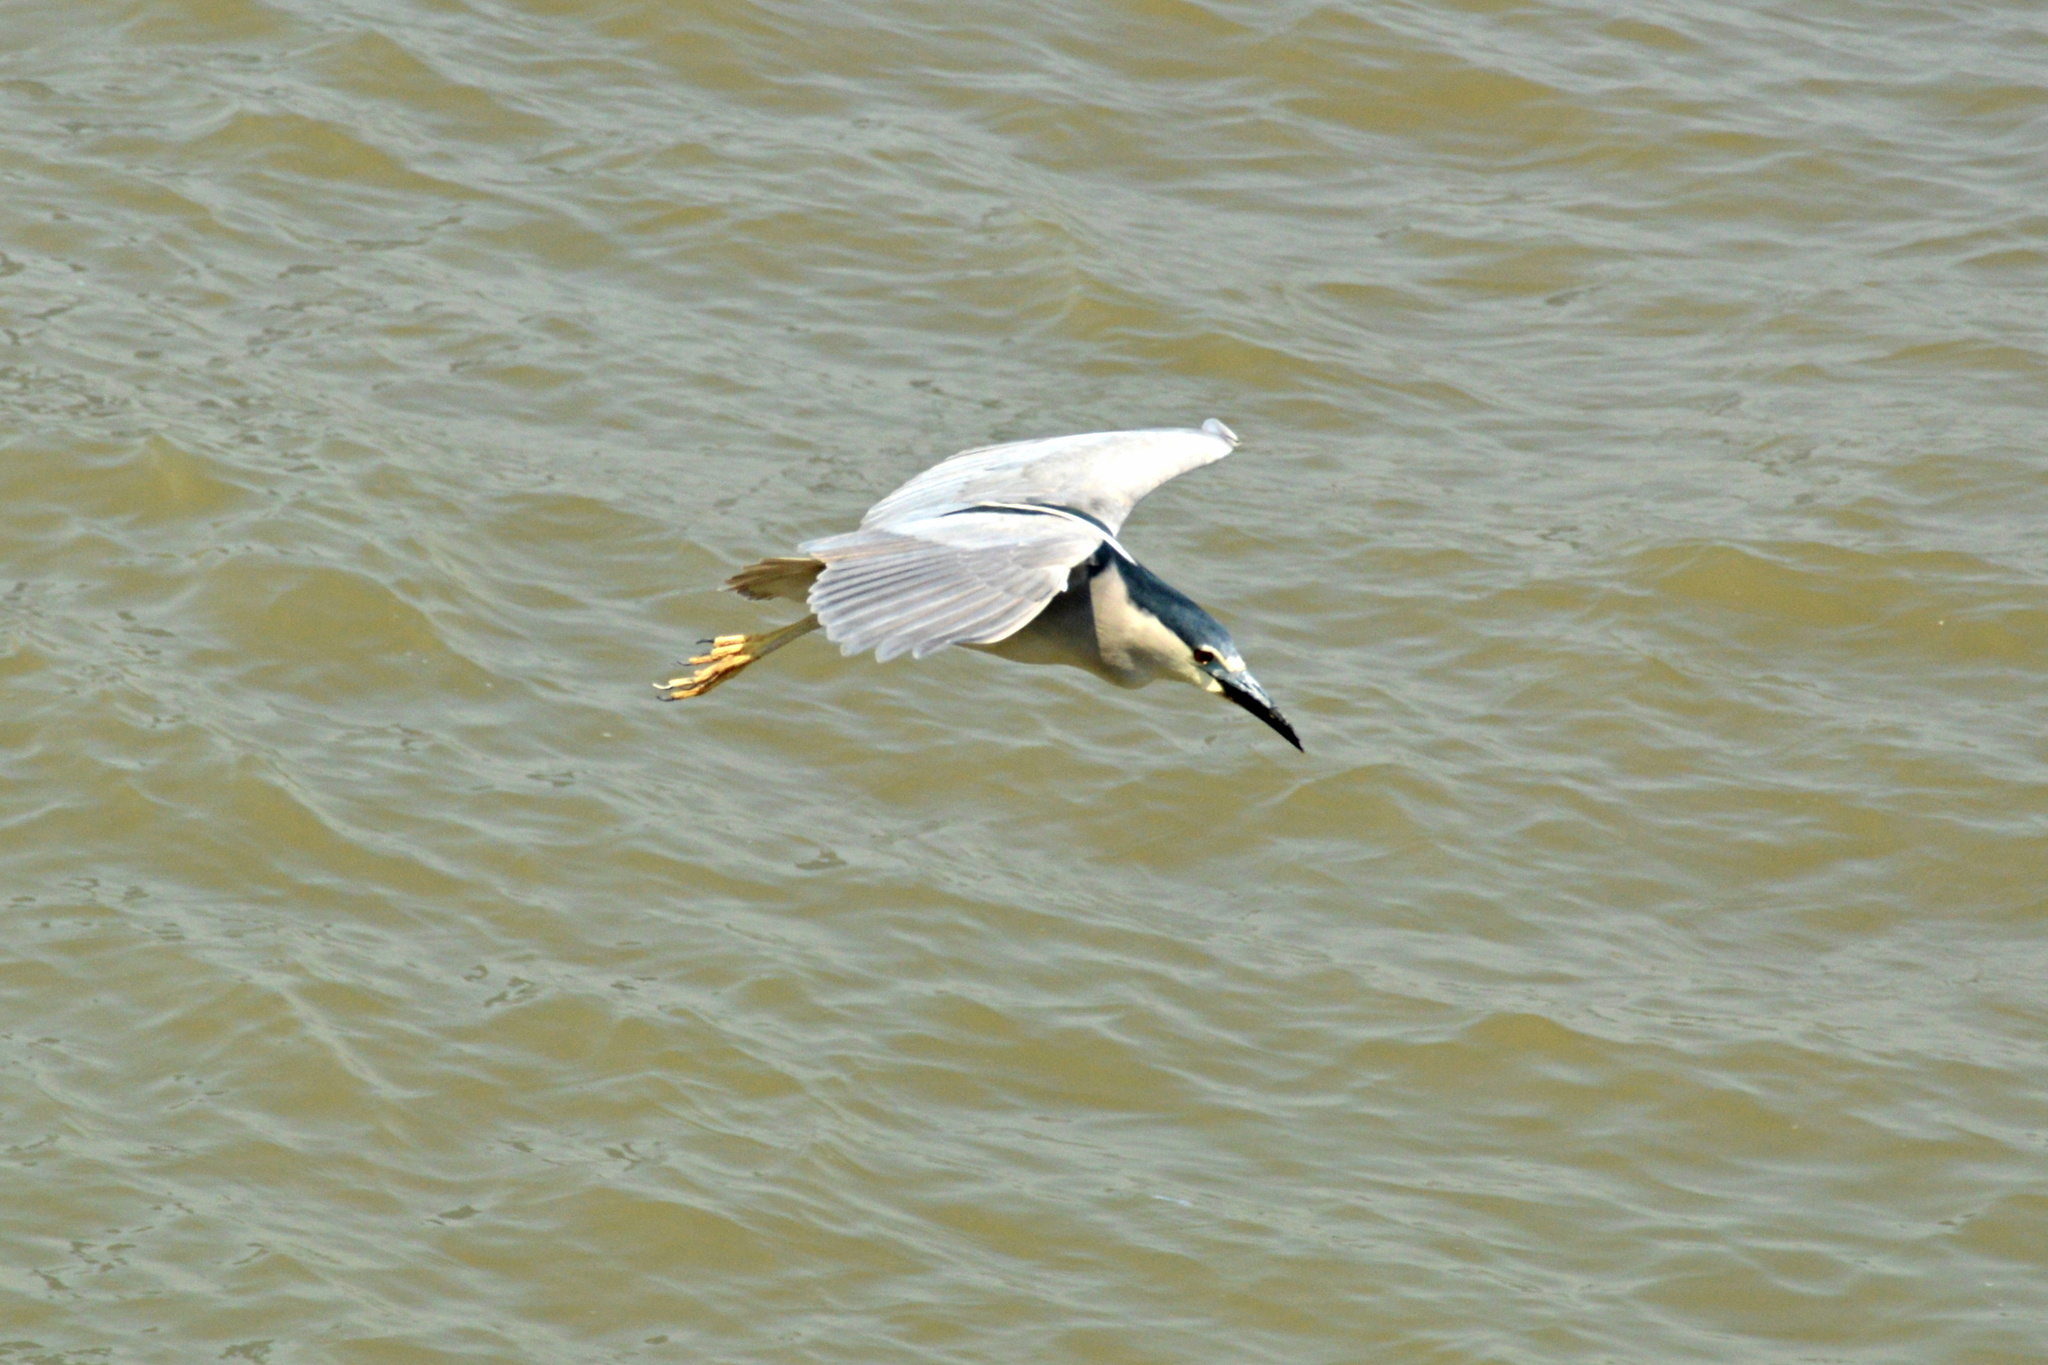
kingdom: Animalia
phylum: Chordata
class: Aves
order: Pelecaniformes
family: Ardeidae
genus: Nycticorax
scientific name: Nycticorax nycticorax
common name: Black-crowned night heron
